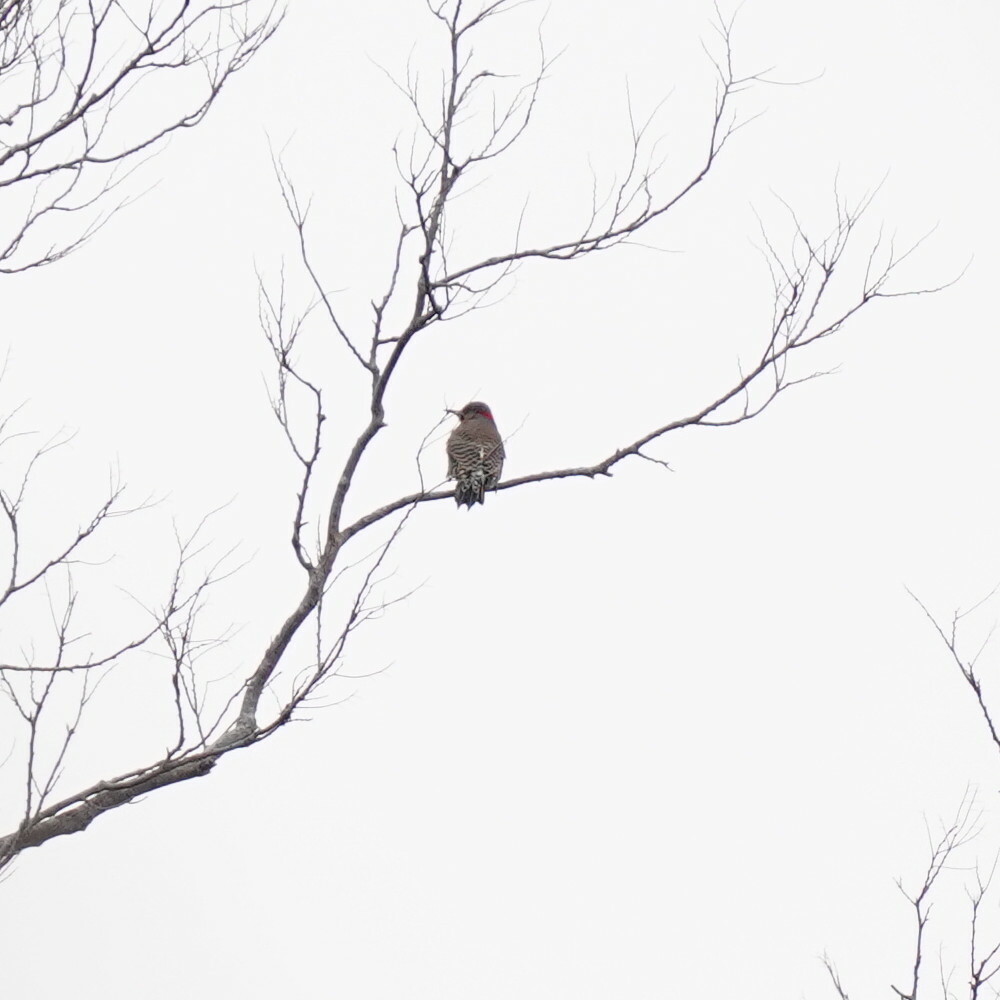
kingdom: Animalia
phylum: Chordata
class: Aves
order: Piciformes
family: Picidae
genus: Colaptes
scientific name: Colaptes auratus
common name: Northern flicker
